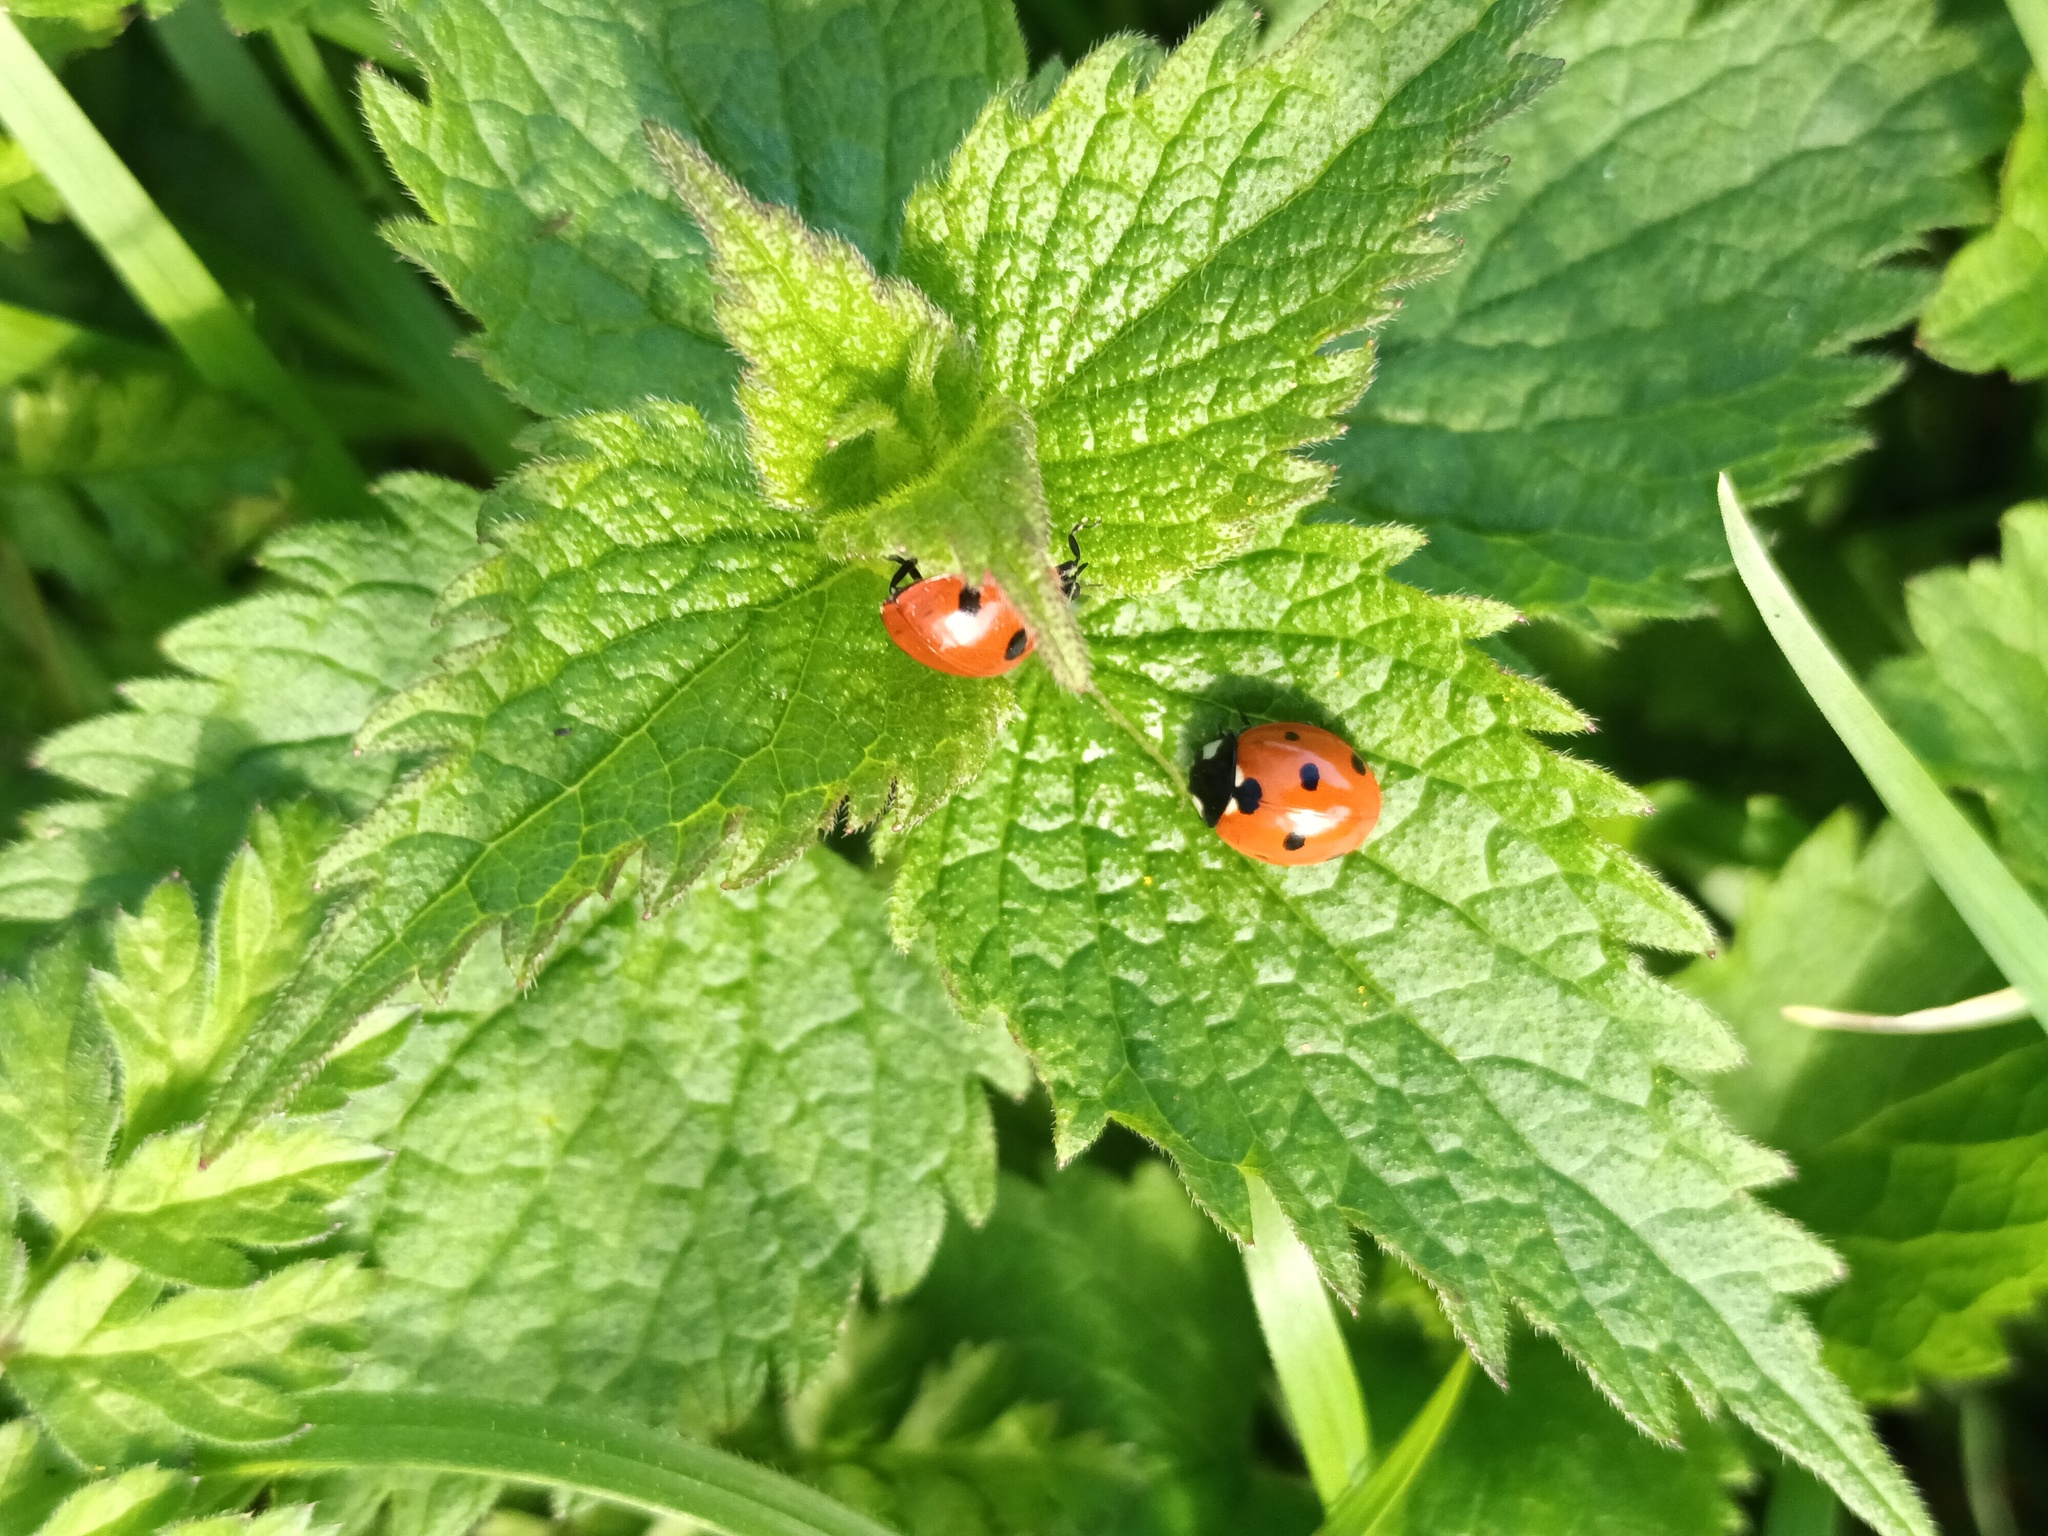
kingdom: Animalia
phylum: Arthropoda
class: Insecta
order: Coleoptera
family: Coccinellidae
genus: Coccinella
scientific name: Coccinella septempunctata
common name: Sevenspotted lady beetle
